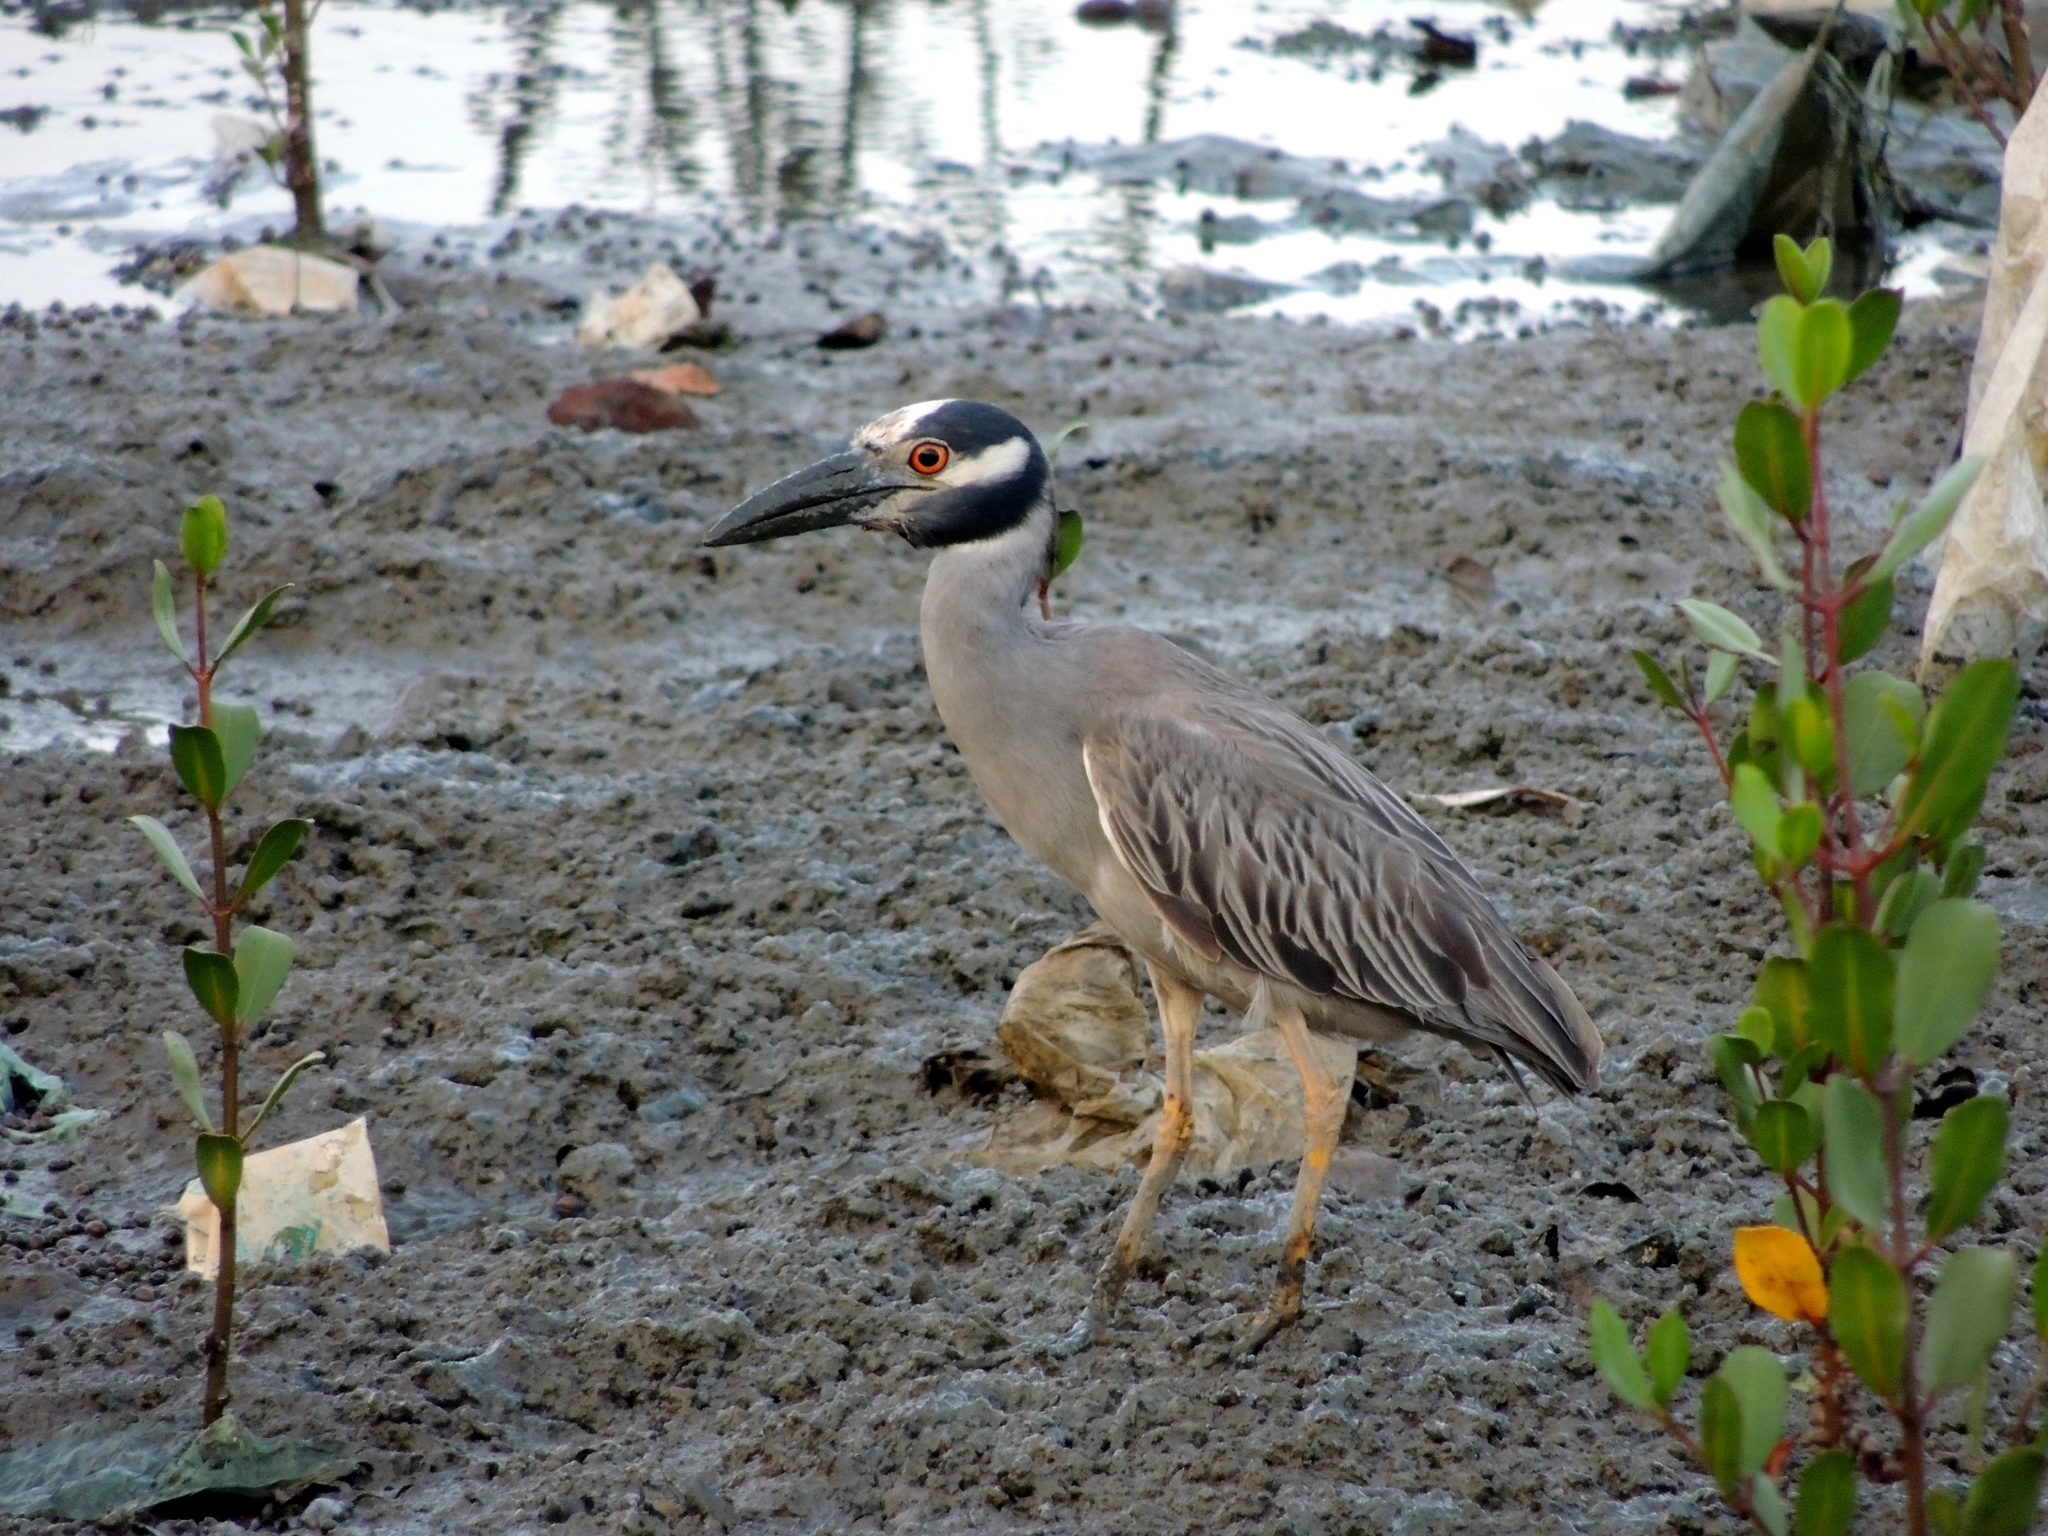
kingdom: Animalia
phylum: Chordata
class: Aves
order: Pelecaniformes
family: Ardeidae
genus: Nyctanassa
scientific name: Nyctanassa violacea
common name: Yellow-crowned night heron
